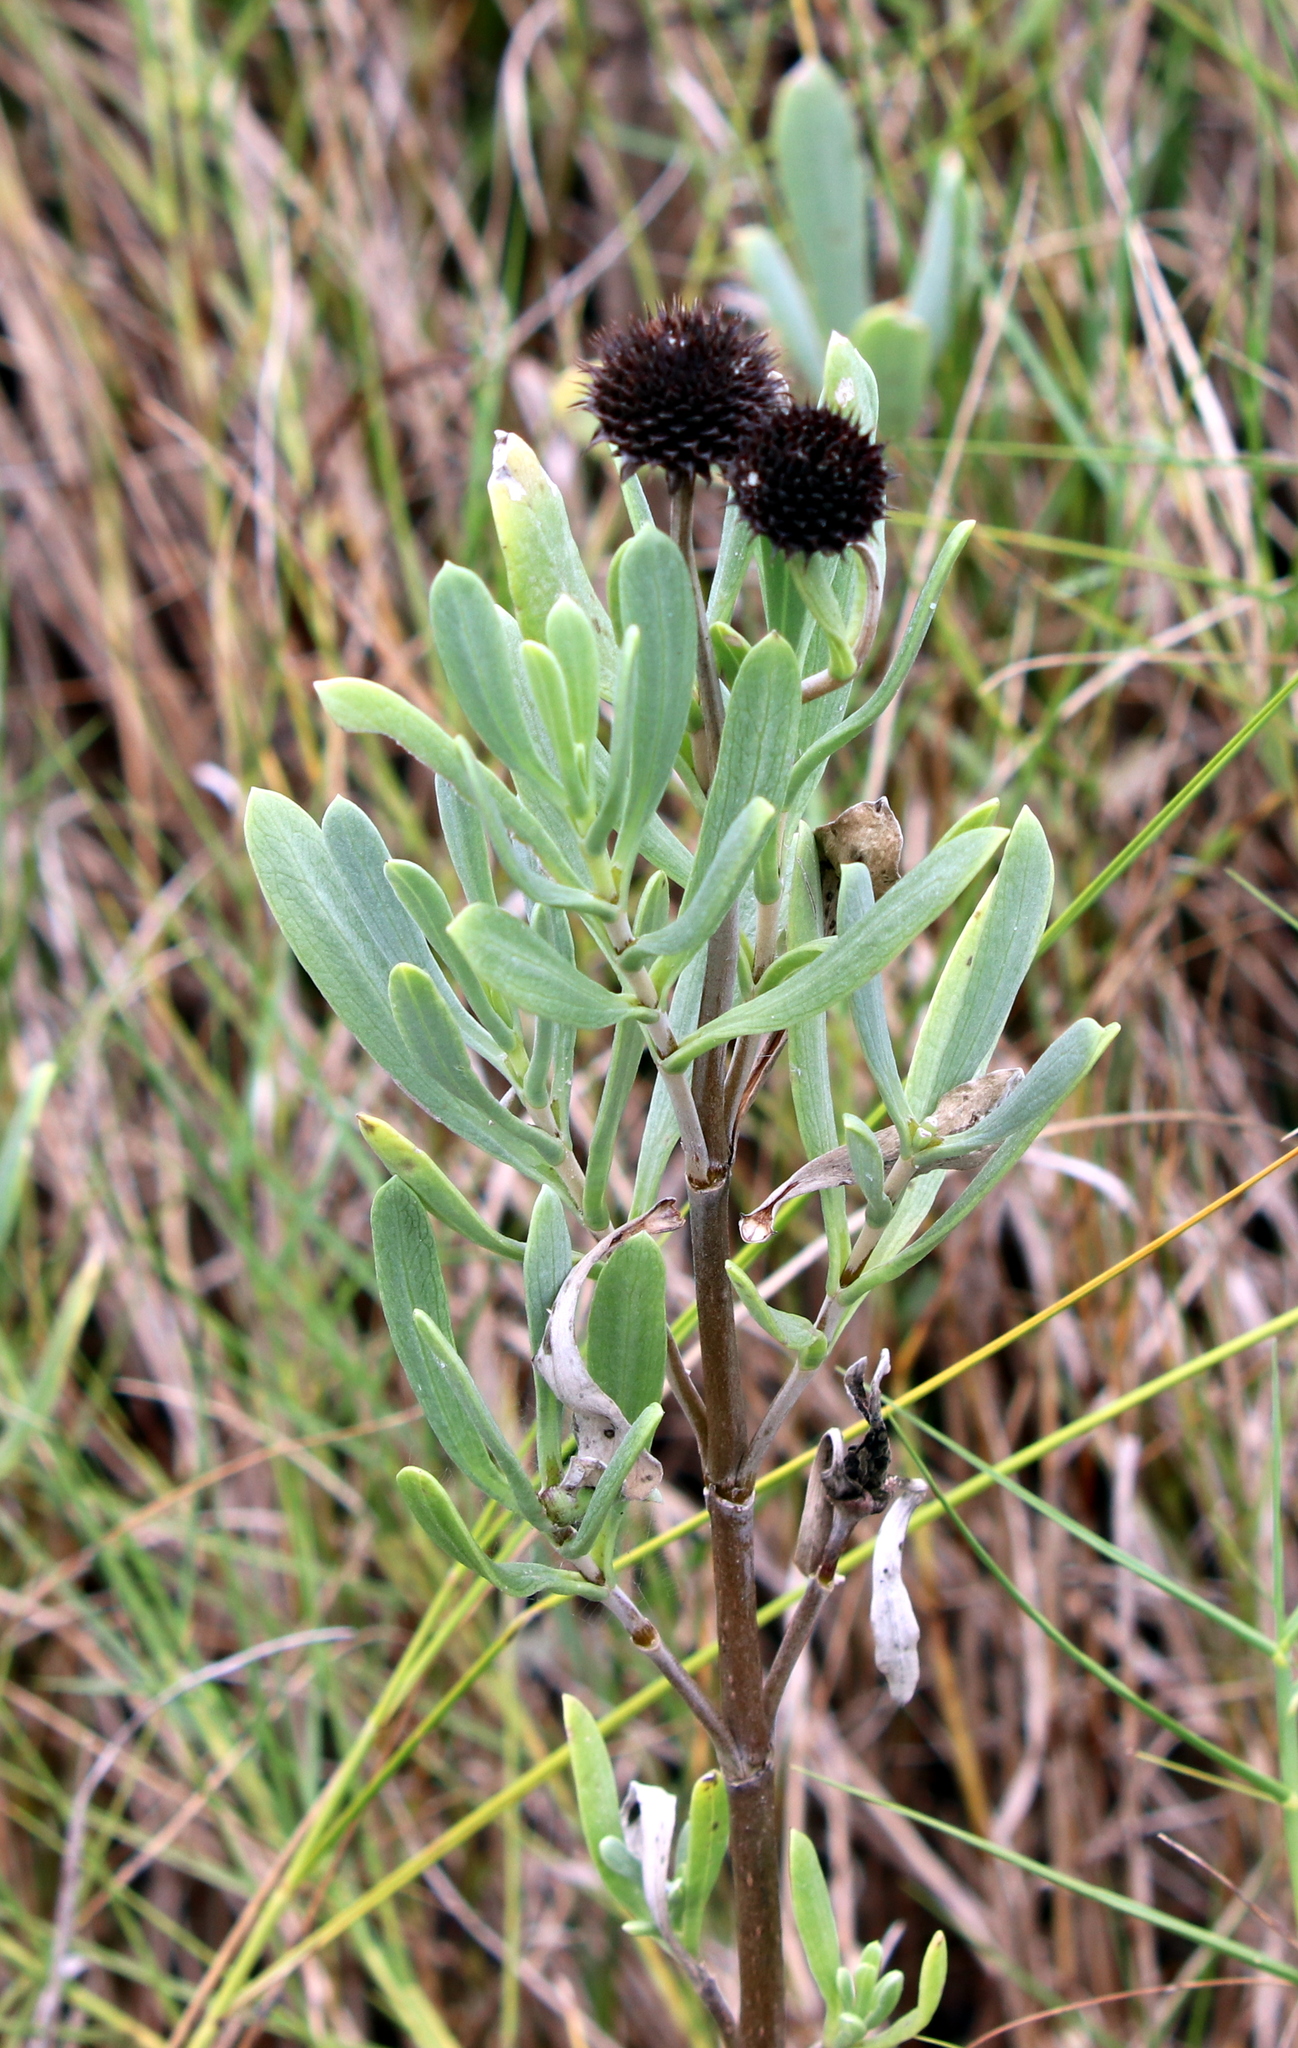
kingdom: Plantae
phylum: Tracheophyta
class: Magnoliopsida
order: Asterales
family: Asteraceae
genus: Borrichia
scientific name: Borrichia frutescens
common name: Sea oxeye
